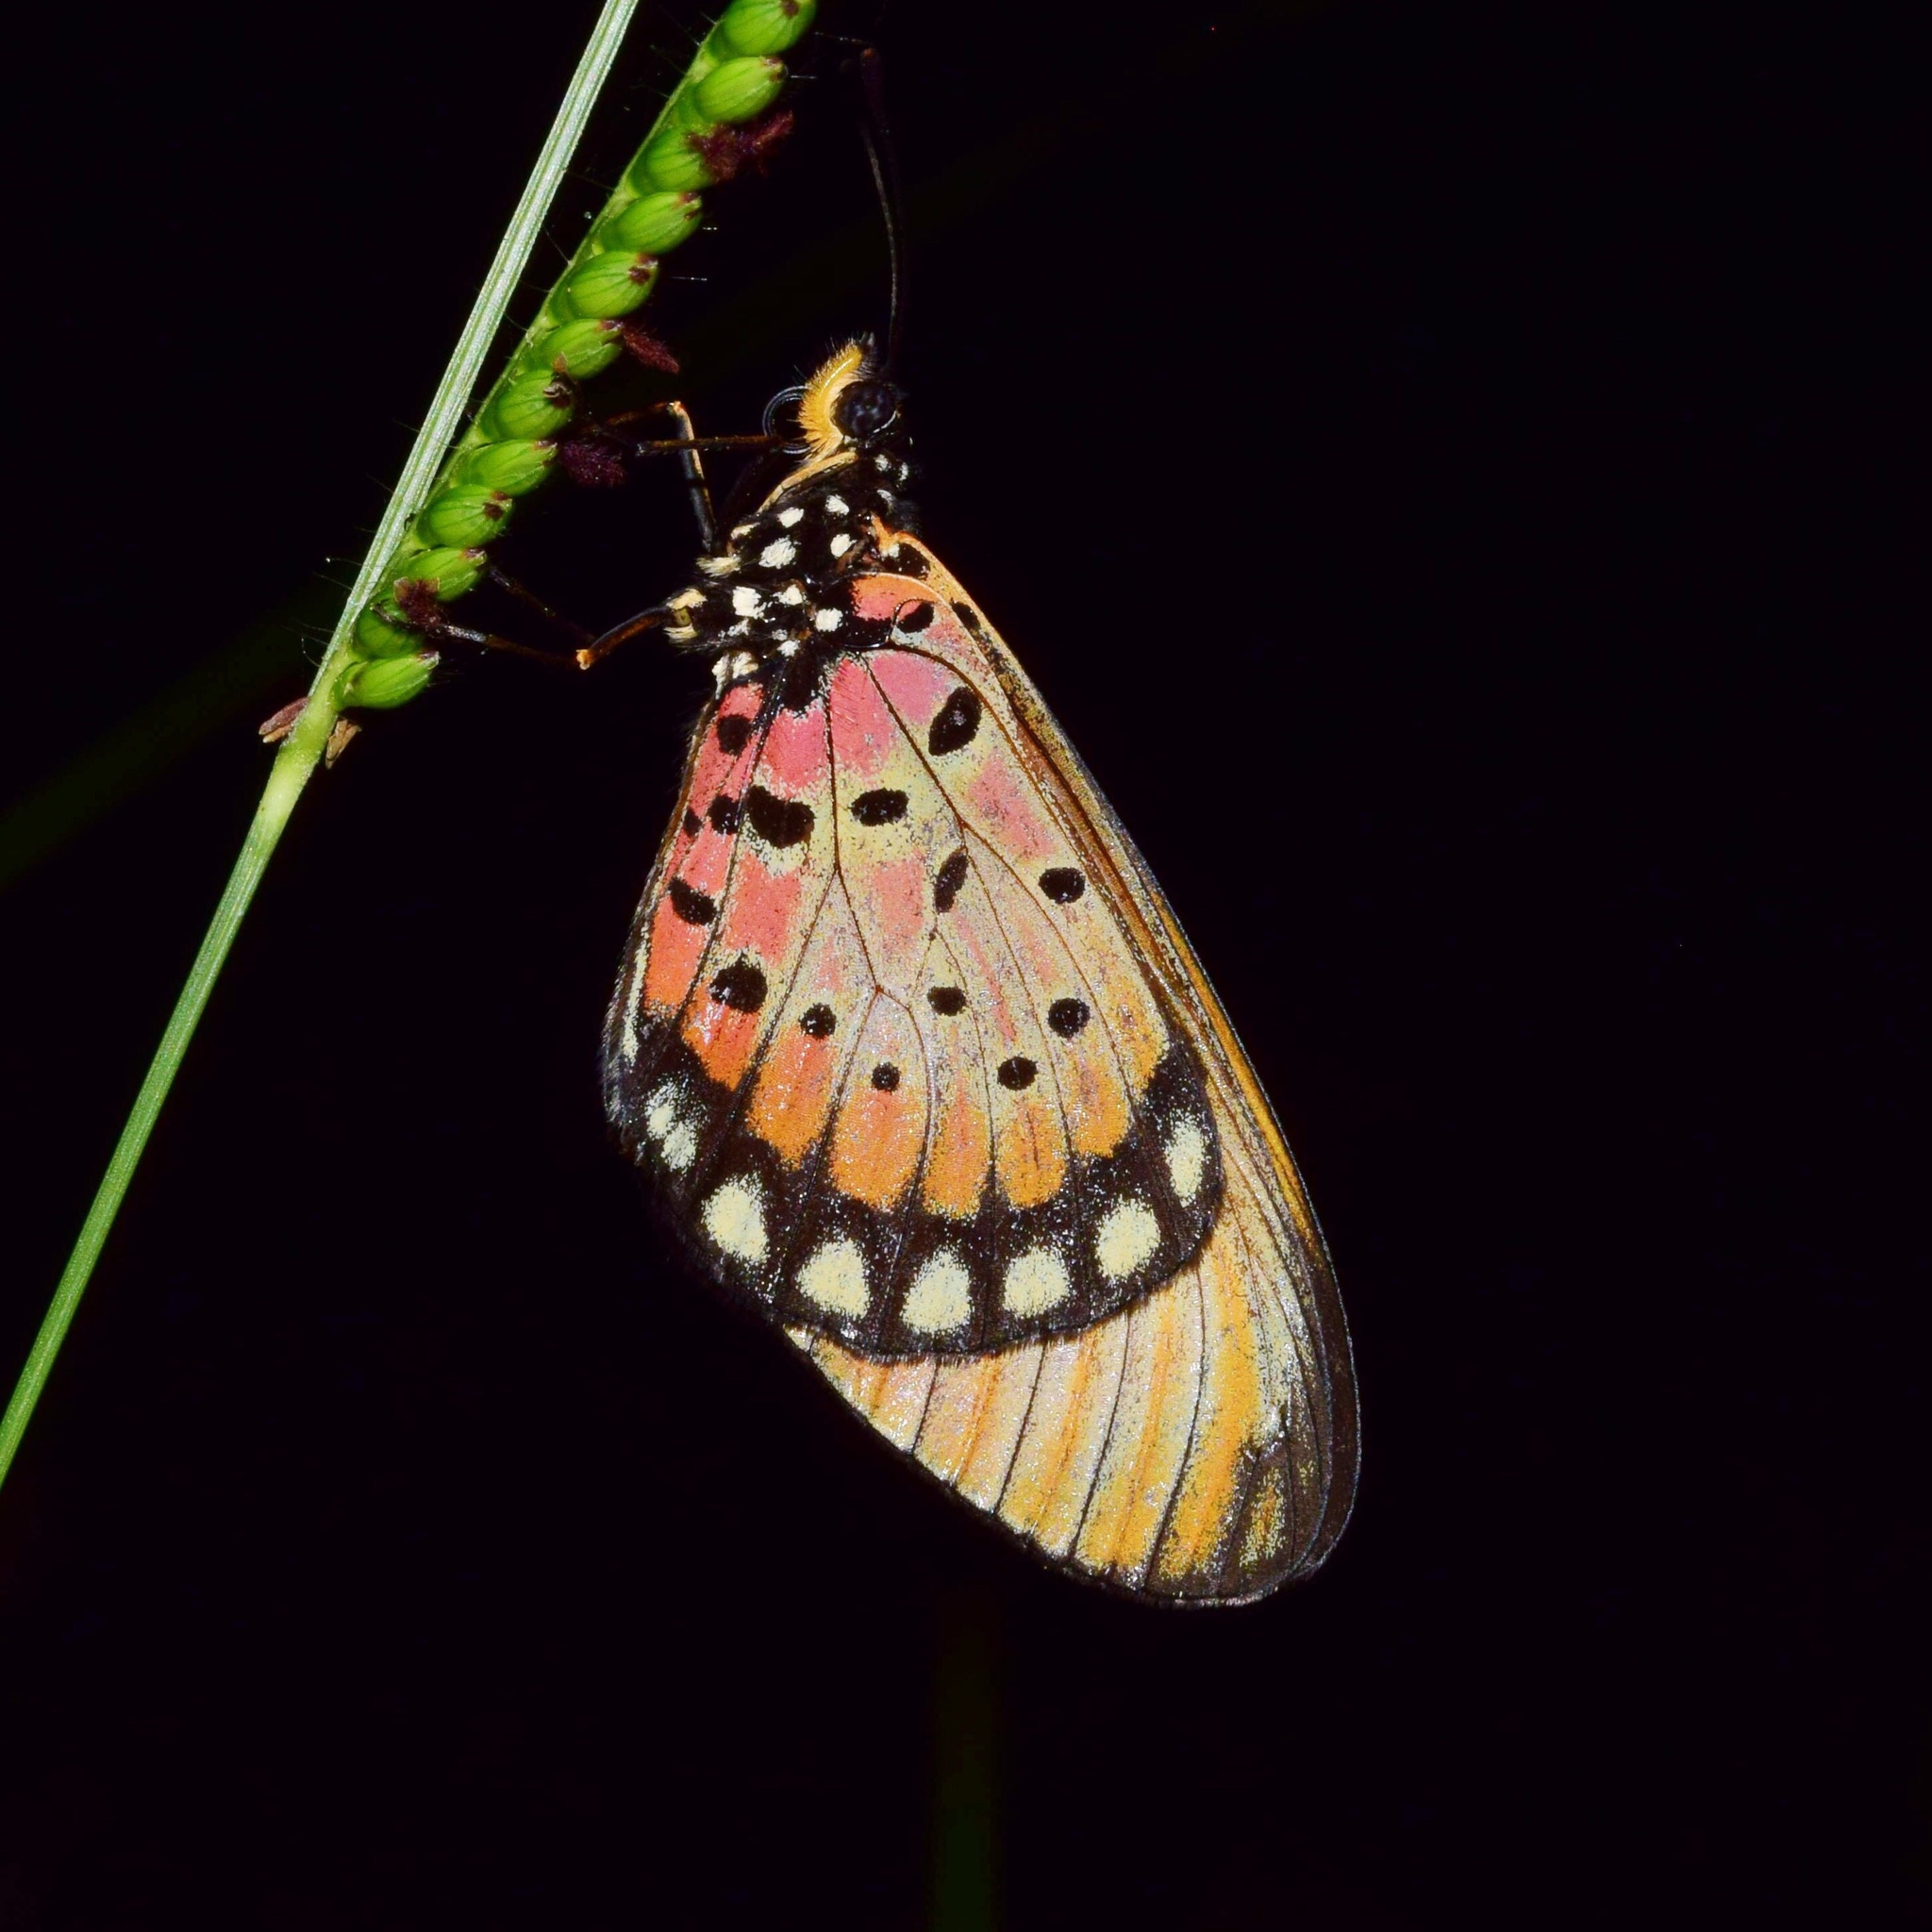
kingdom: Animalia
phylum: Arthropoda
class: Insecta
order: Lepidoptera
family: Nymphalidae
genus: Stephenia
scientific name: Stephenia
